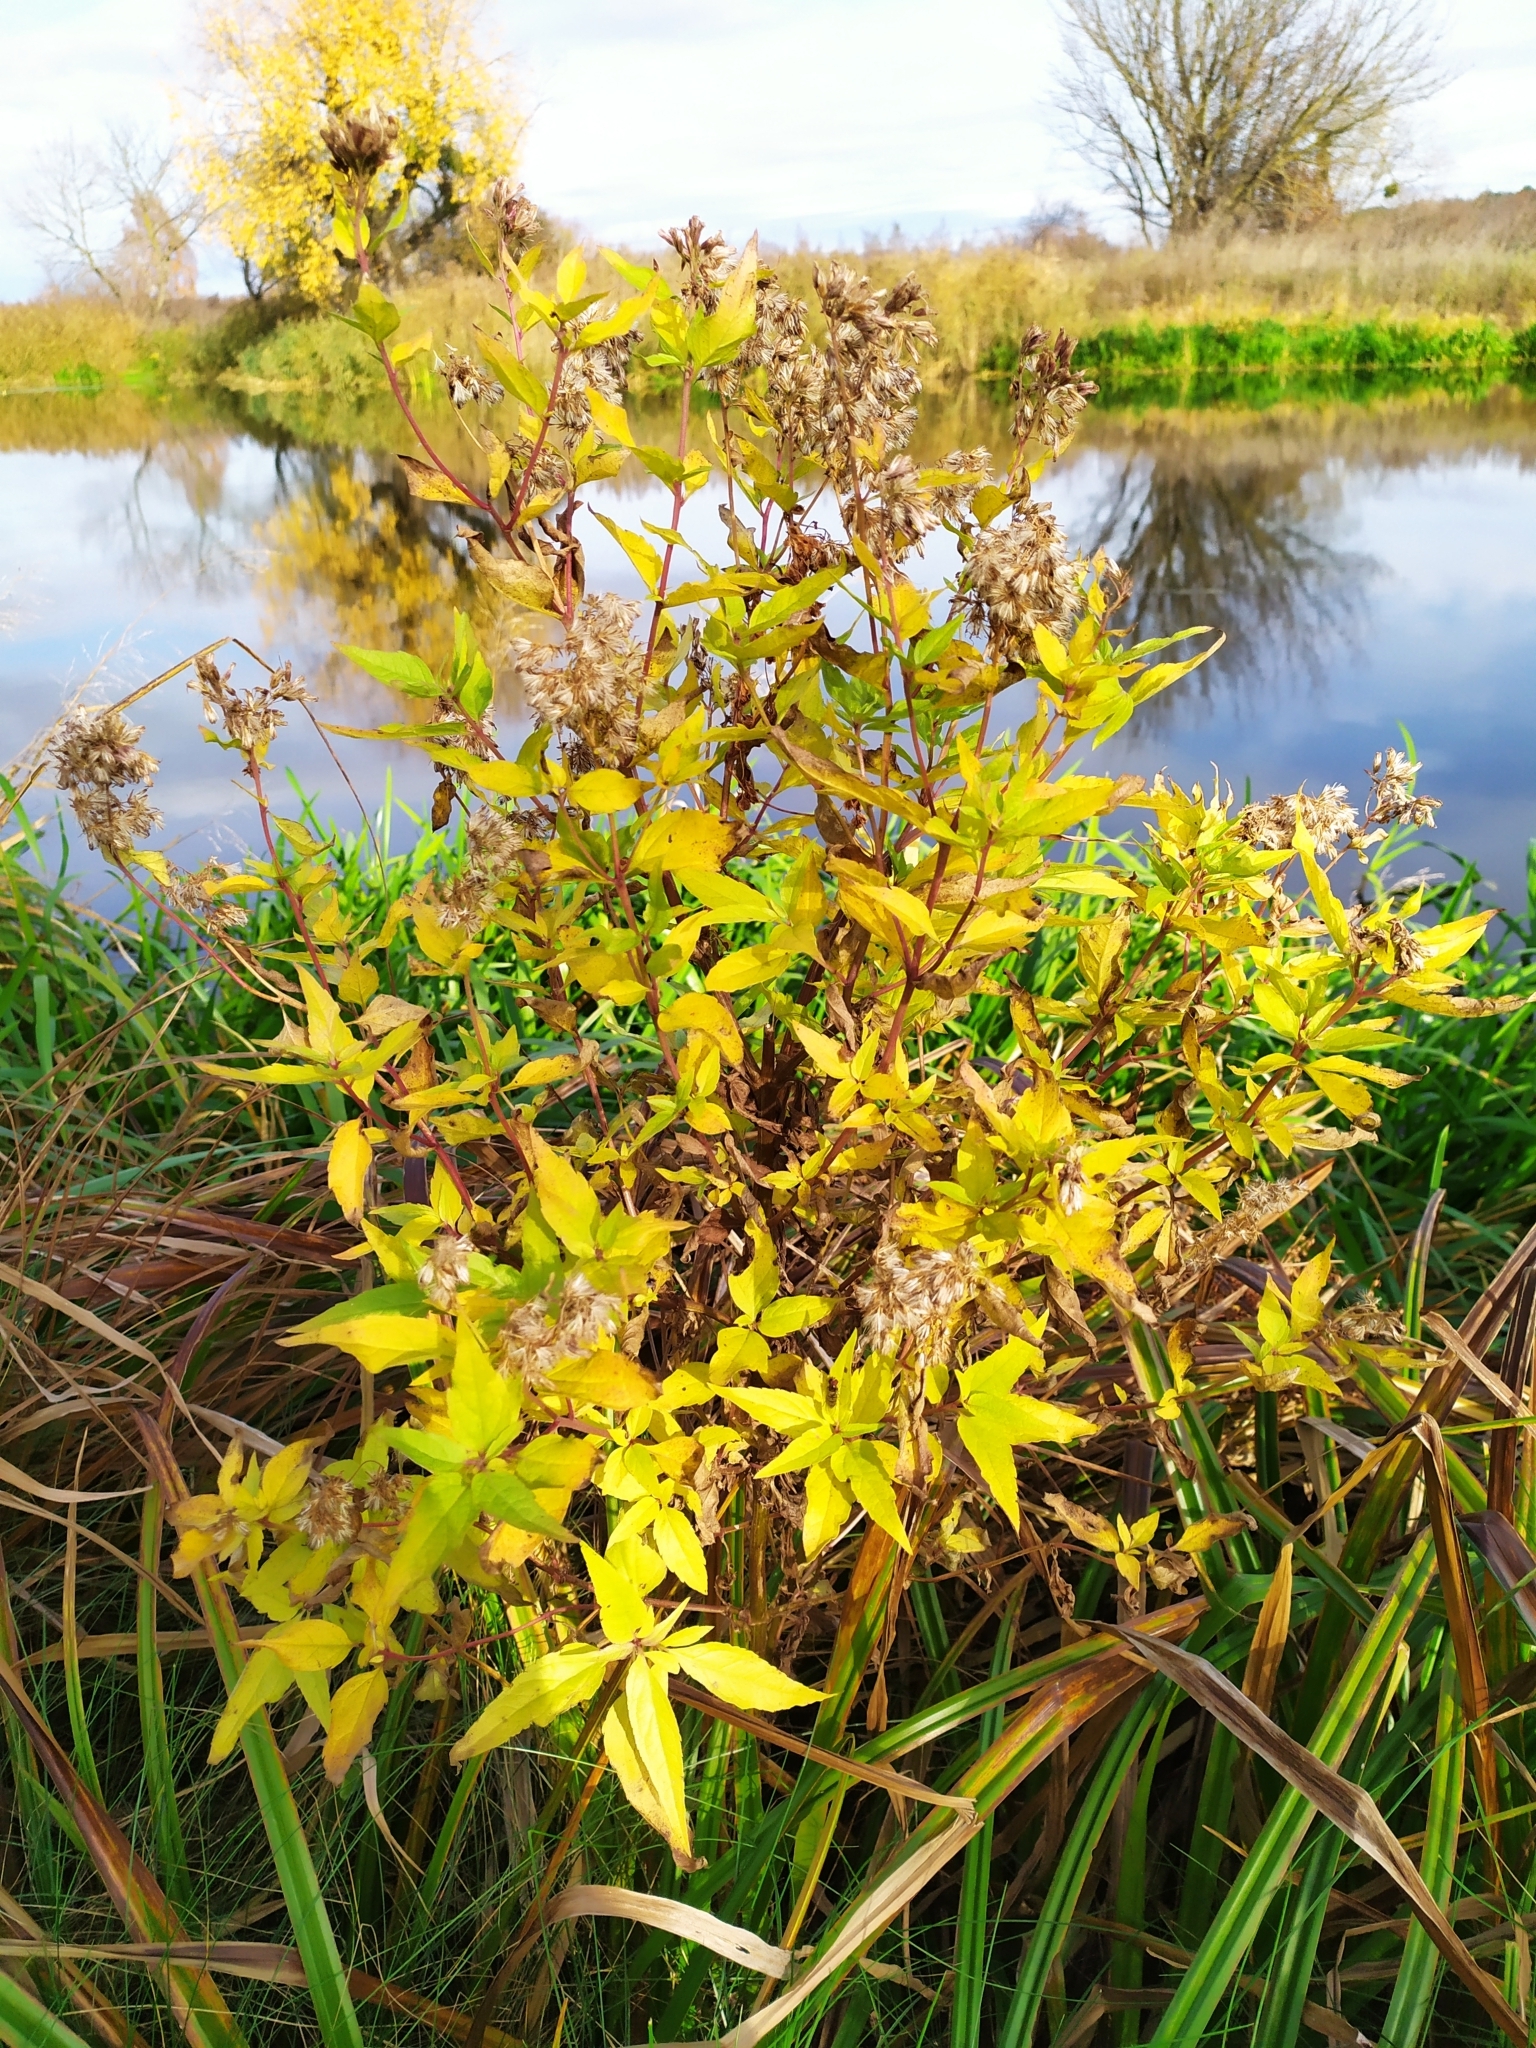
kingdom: Plantae
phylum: Tracheophyta
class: Magnoliopsida
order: Asterales
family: Asteraceae
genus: Eupatorium
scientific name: Eupatorium cannabinum
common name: Hemp-agrimony
